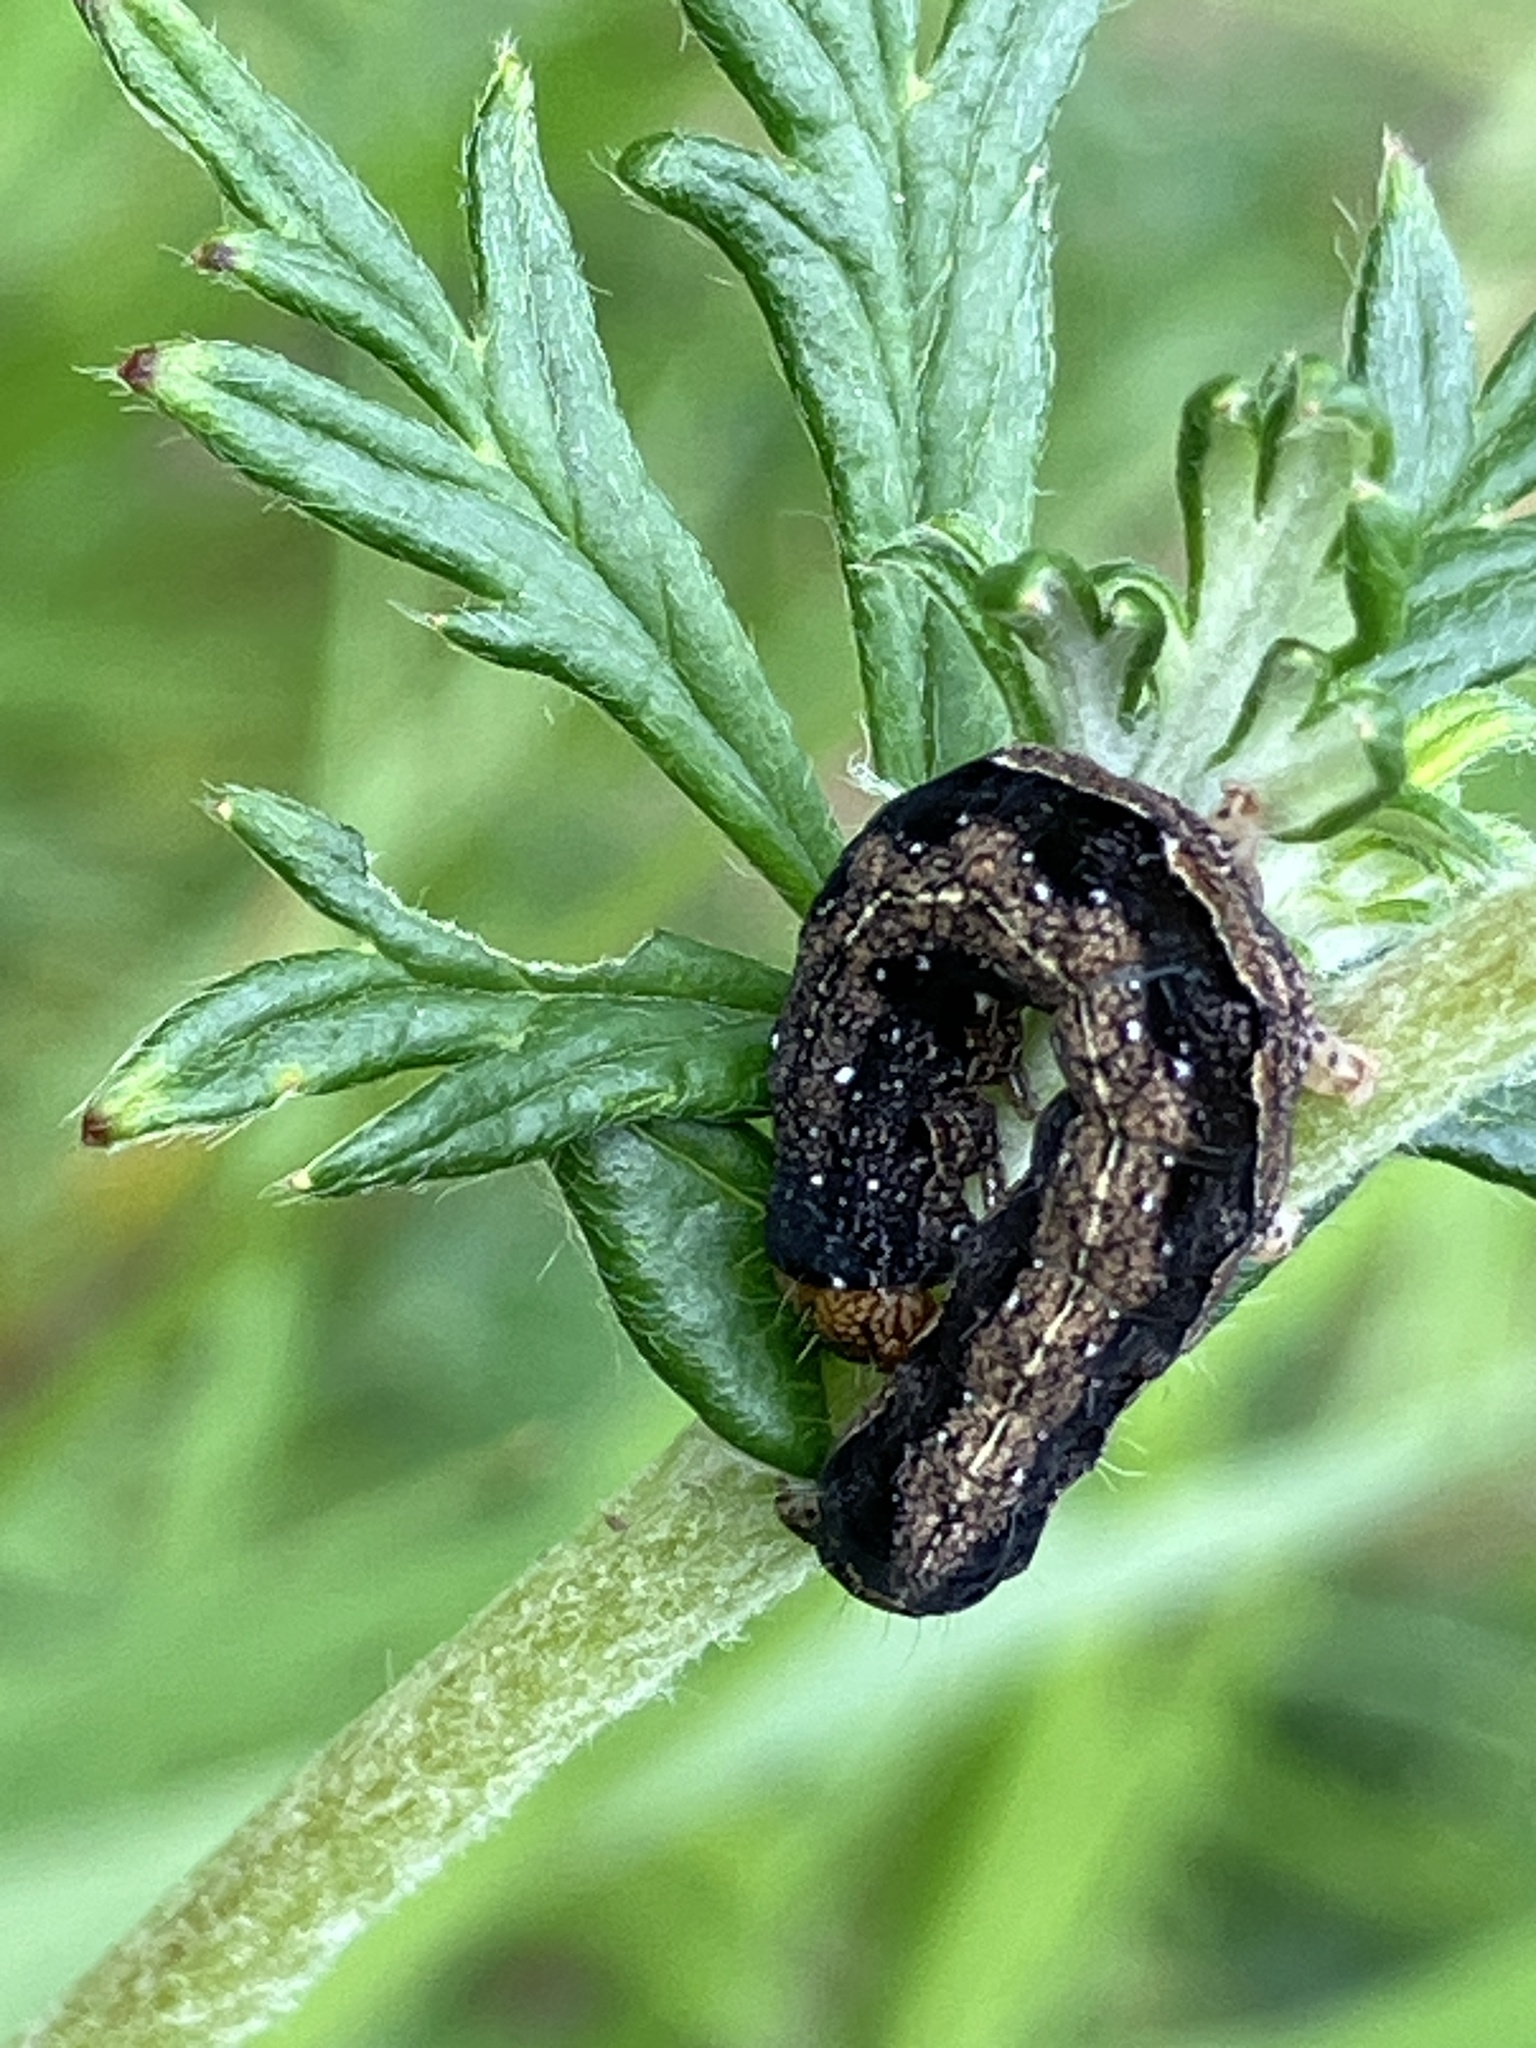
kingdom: Animalia
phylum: Arthropoda
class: Insecta
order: Lepidoptera
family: Noctuidae
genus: Anorthoa
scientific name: Anorthoa munda
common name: Twin-spotted quaker
